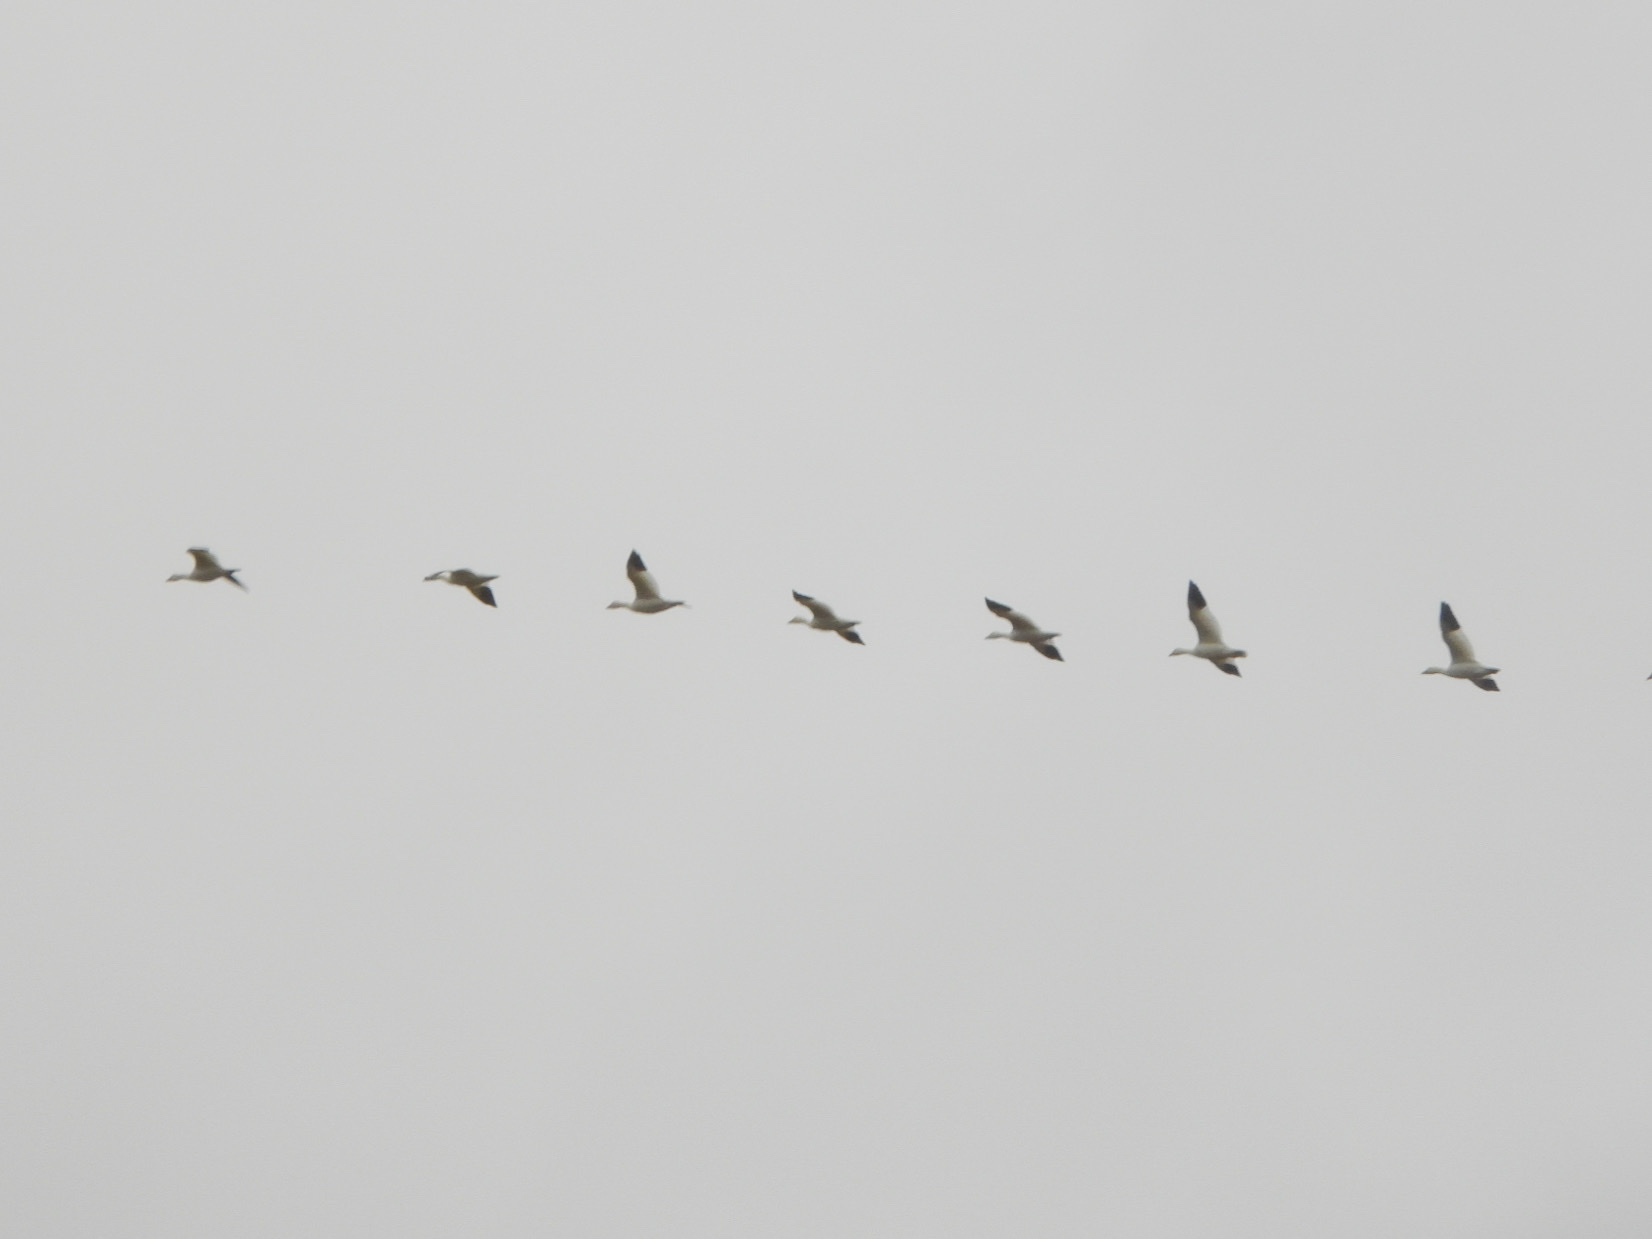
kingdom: Animalia
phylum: Chordata
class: Aves
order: Anseriformes
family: Anatidae
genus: Anser
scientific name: Anser caerulescens
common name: Snow goose
